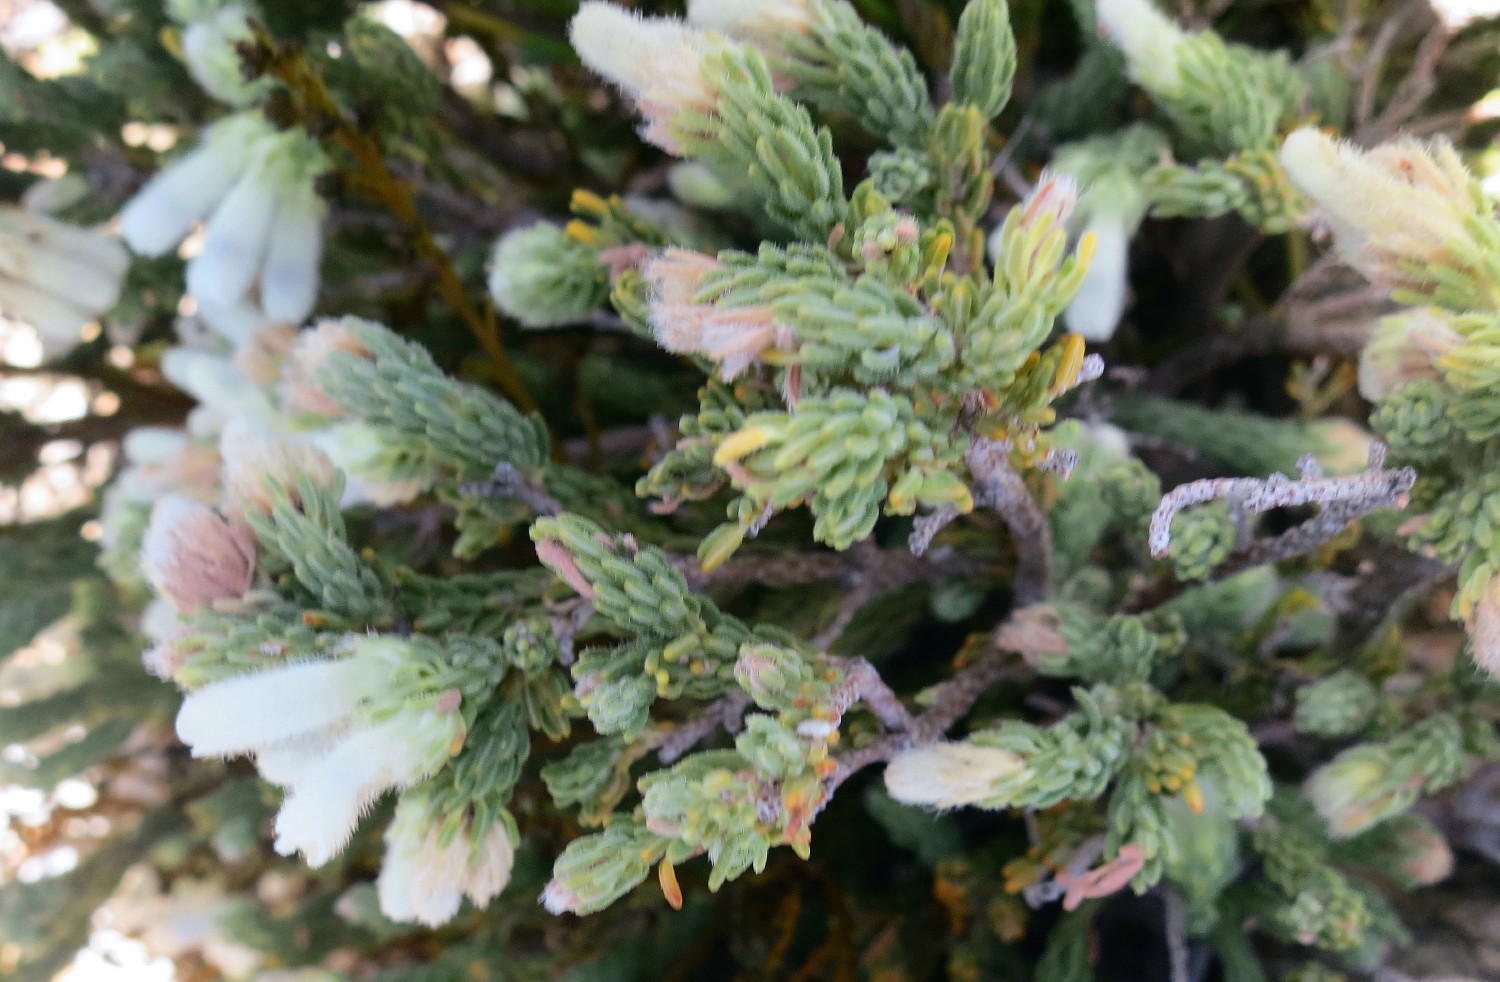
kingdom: Plantae
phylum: Tracheophyta
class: Magnoliopsida
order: Ericales
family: Ericaceae
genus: Erica
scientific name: Erica strigilifolia
